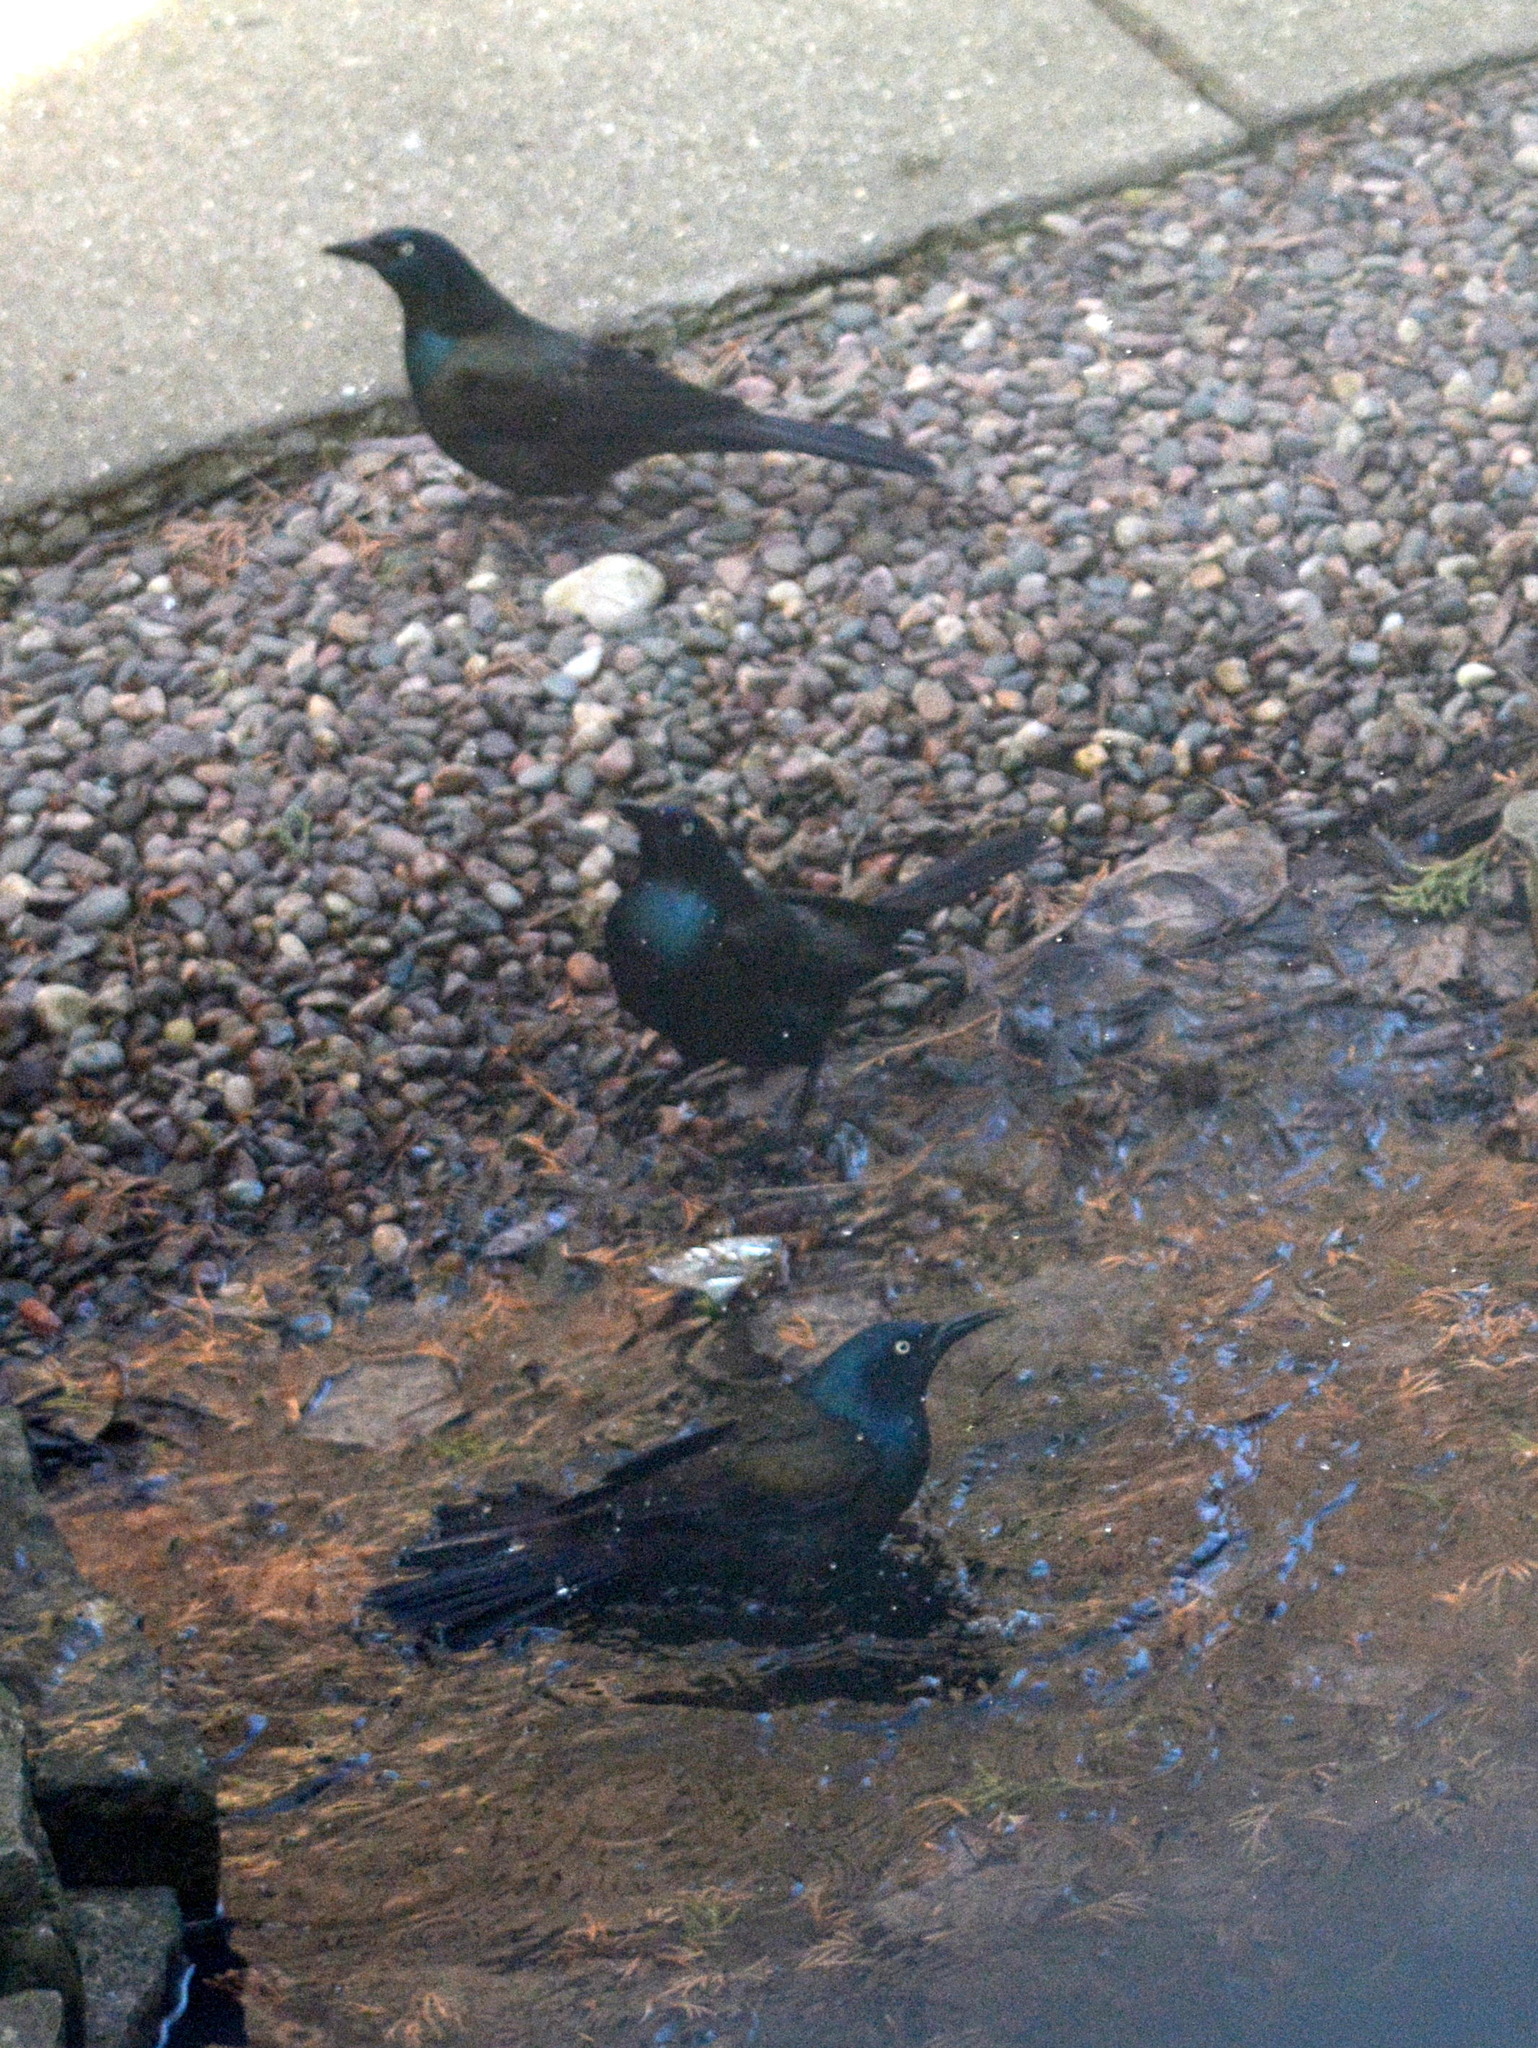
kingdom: Animalia
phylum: Chordata
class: Aves
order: Passeriformes
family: Icteridae
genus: Quiscalus
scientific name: Quiscalus quiscula
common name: Common grackle
